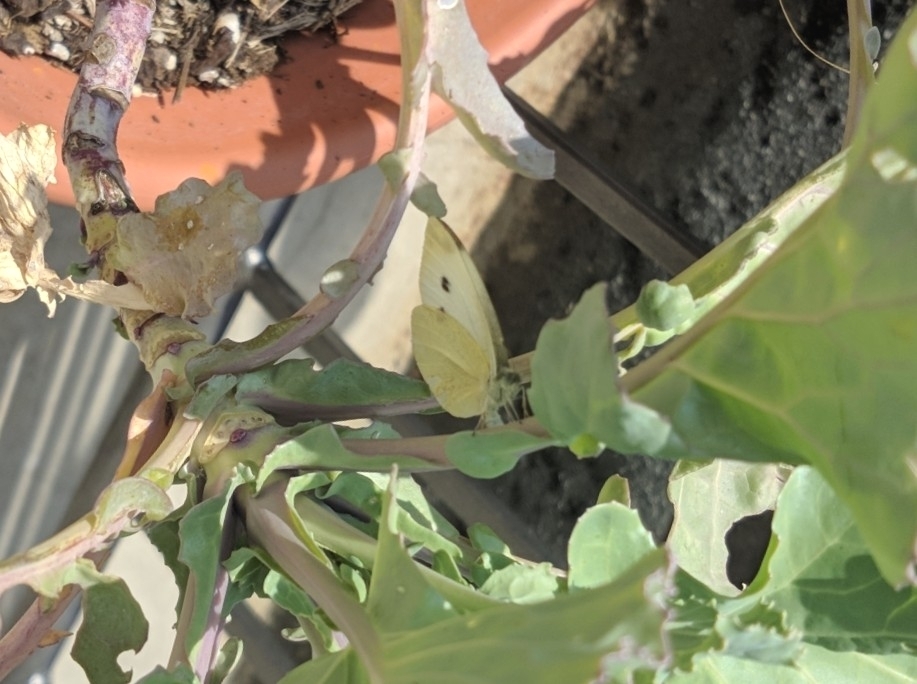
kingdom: Animalia
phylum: Arthropoda
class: Insecta
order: Lepidoptera
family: Pieridae
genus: Pieris
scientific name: Pieris rapae
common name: Small white
